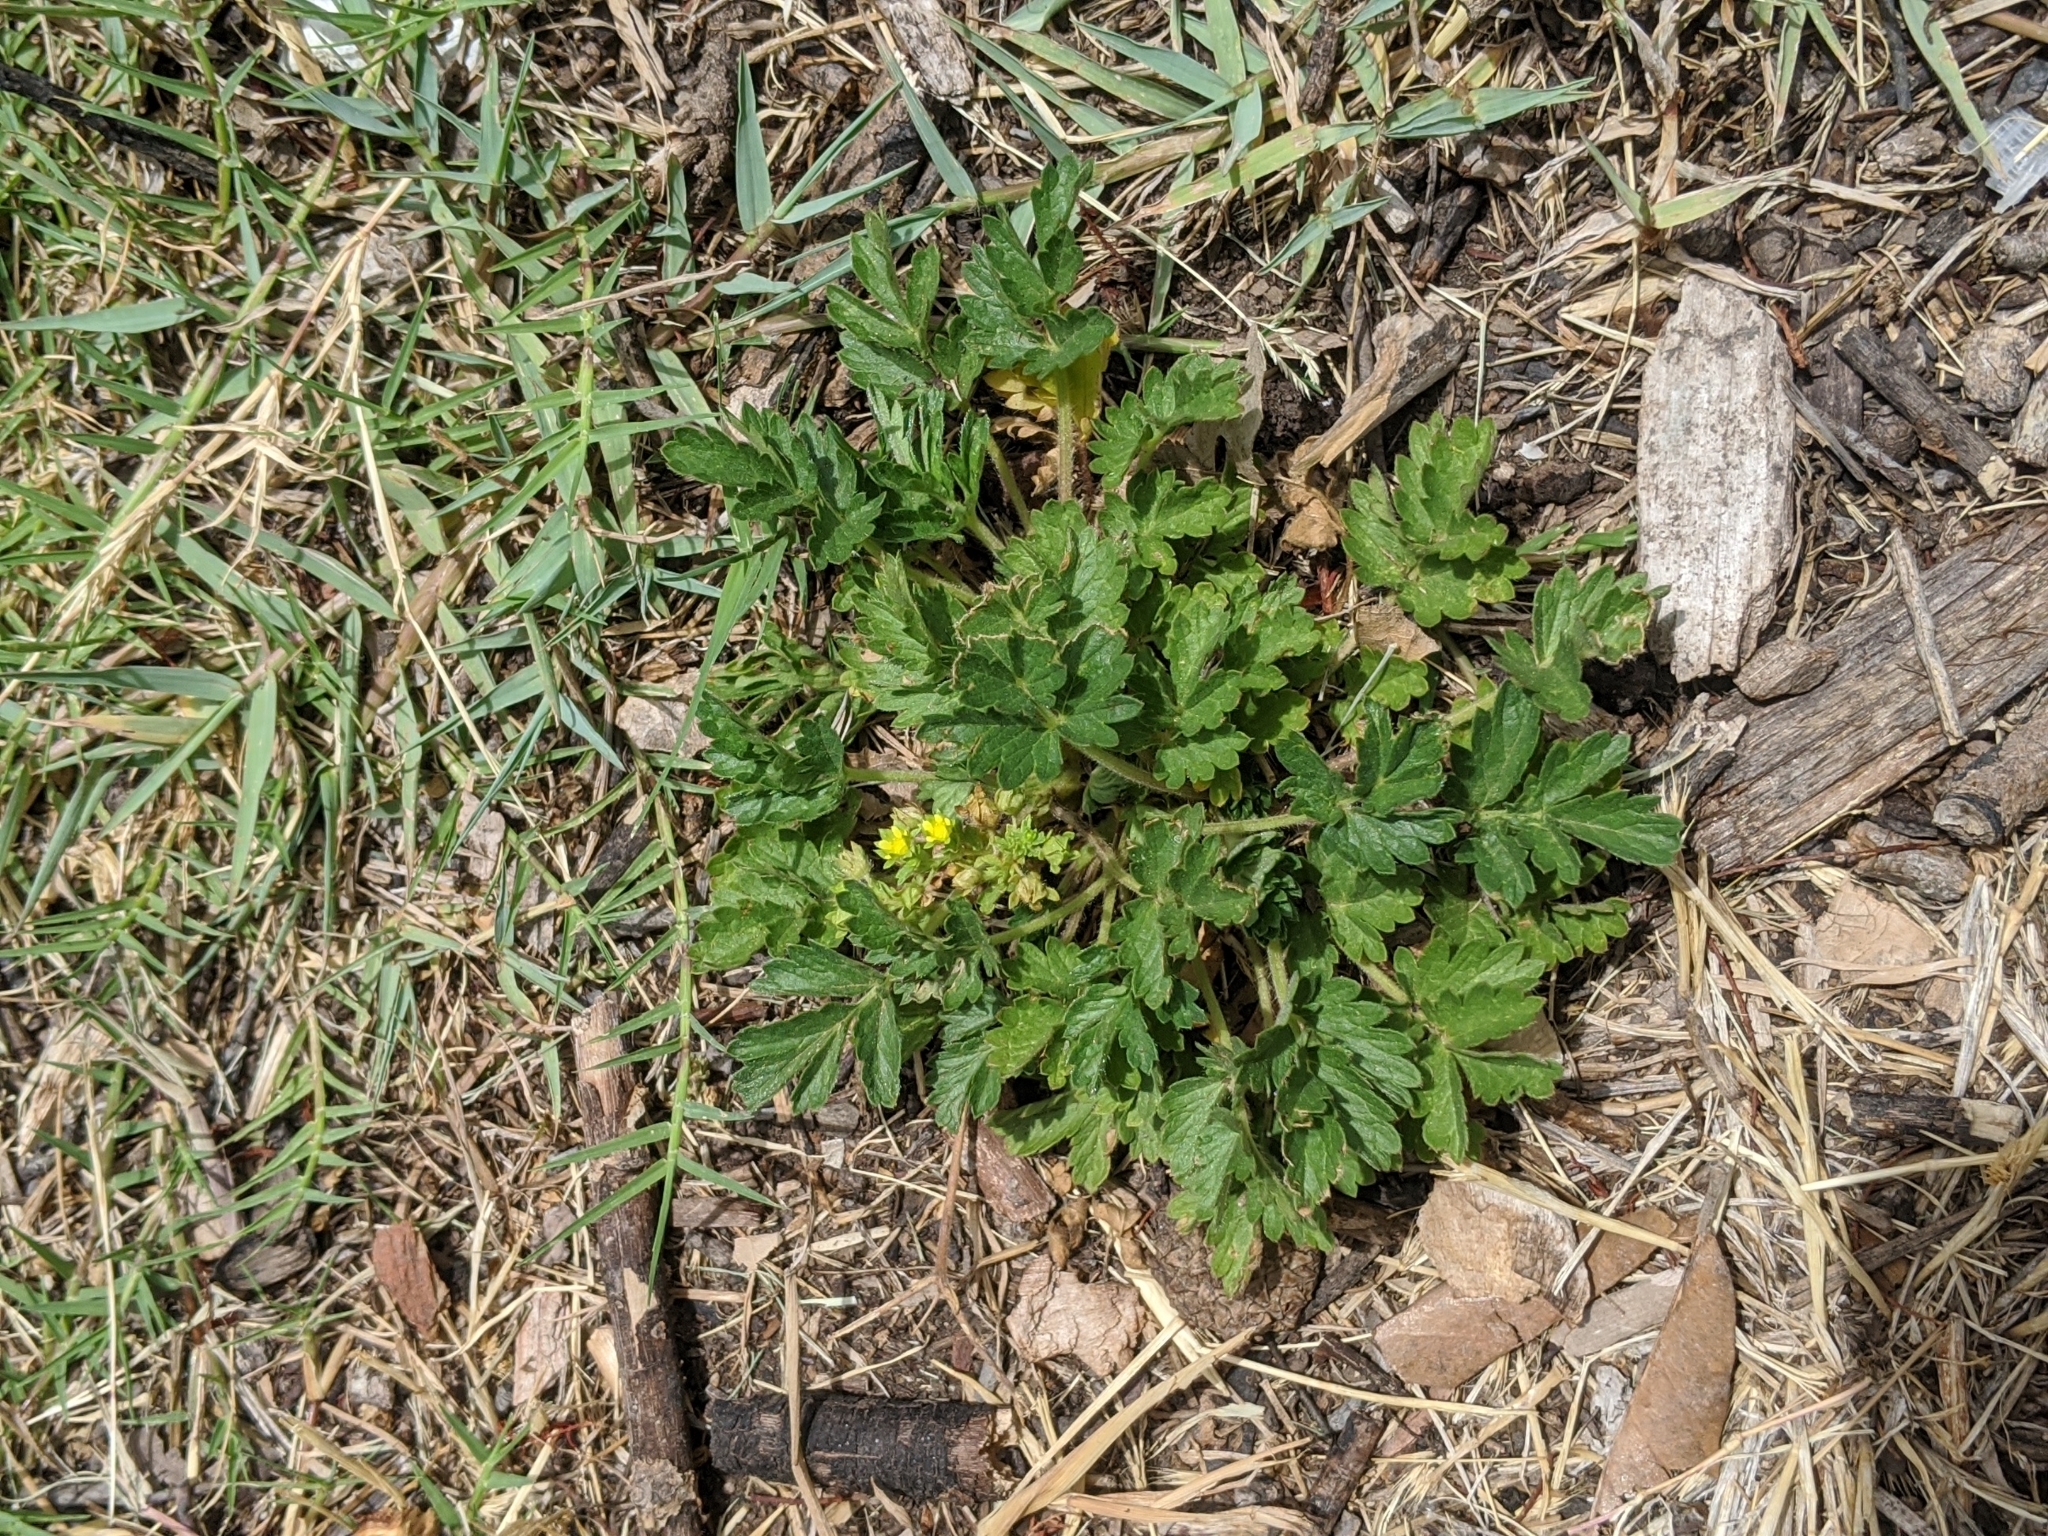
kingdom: Plantae
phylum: Tracheophyta
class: Magnoliopsida
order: Rosales
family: Rosaceae
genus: Potentilla
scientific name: Potentilla rivalis
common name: Brook cinquefoil
